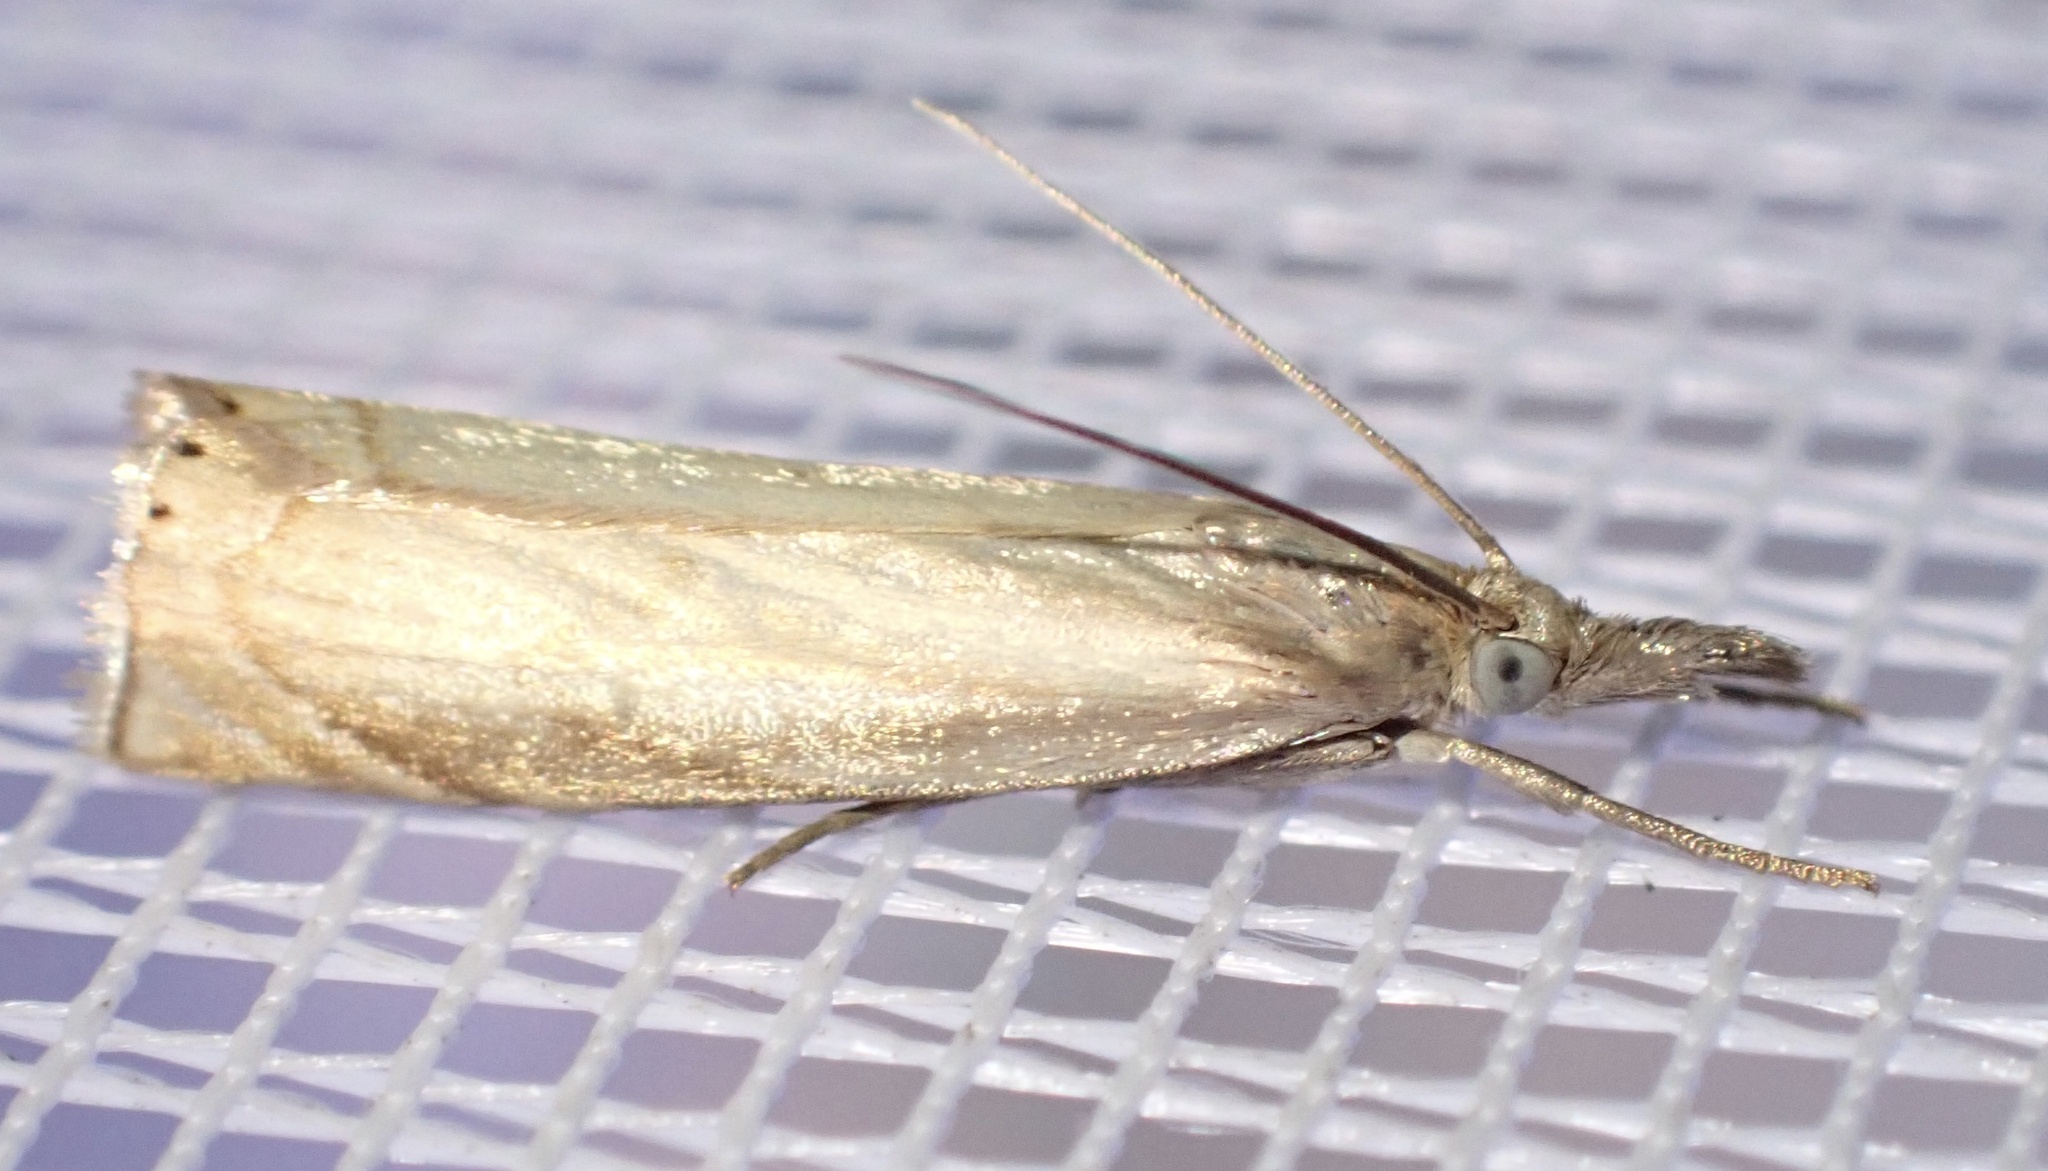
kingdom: Animalia
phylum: Arthropoda
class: Insecta
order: Lepidoptera
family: Crambidae
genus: Chrysoteuchia
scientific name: Chrysoteuchia culmella
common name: Garden grass-veneer
